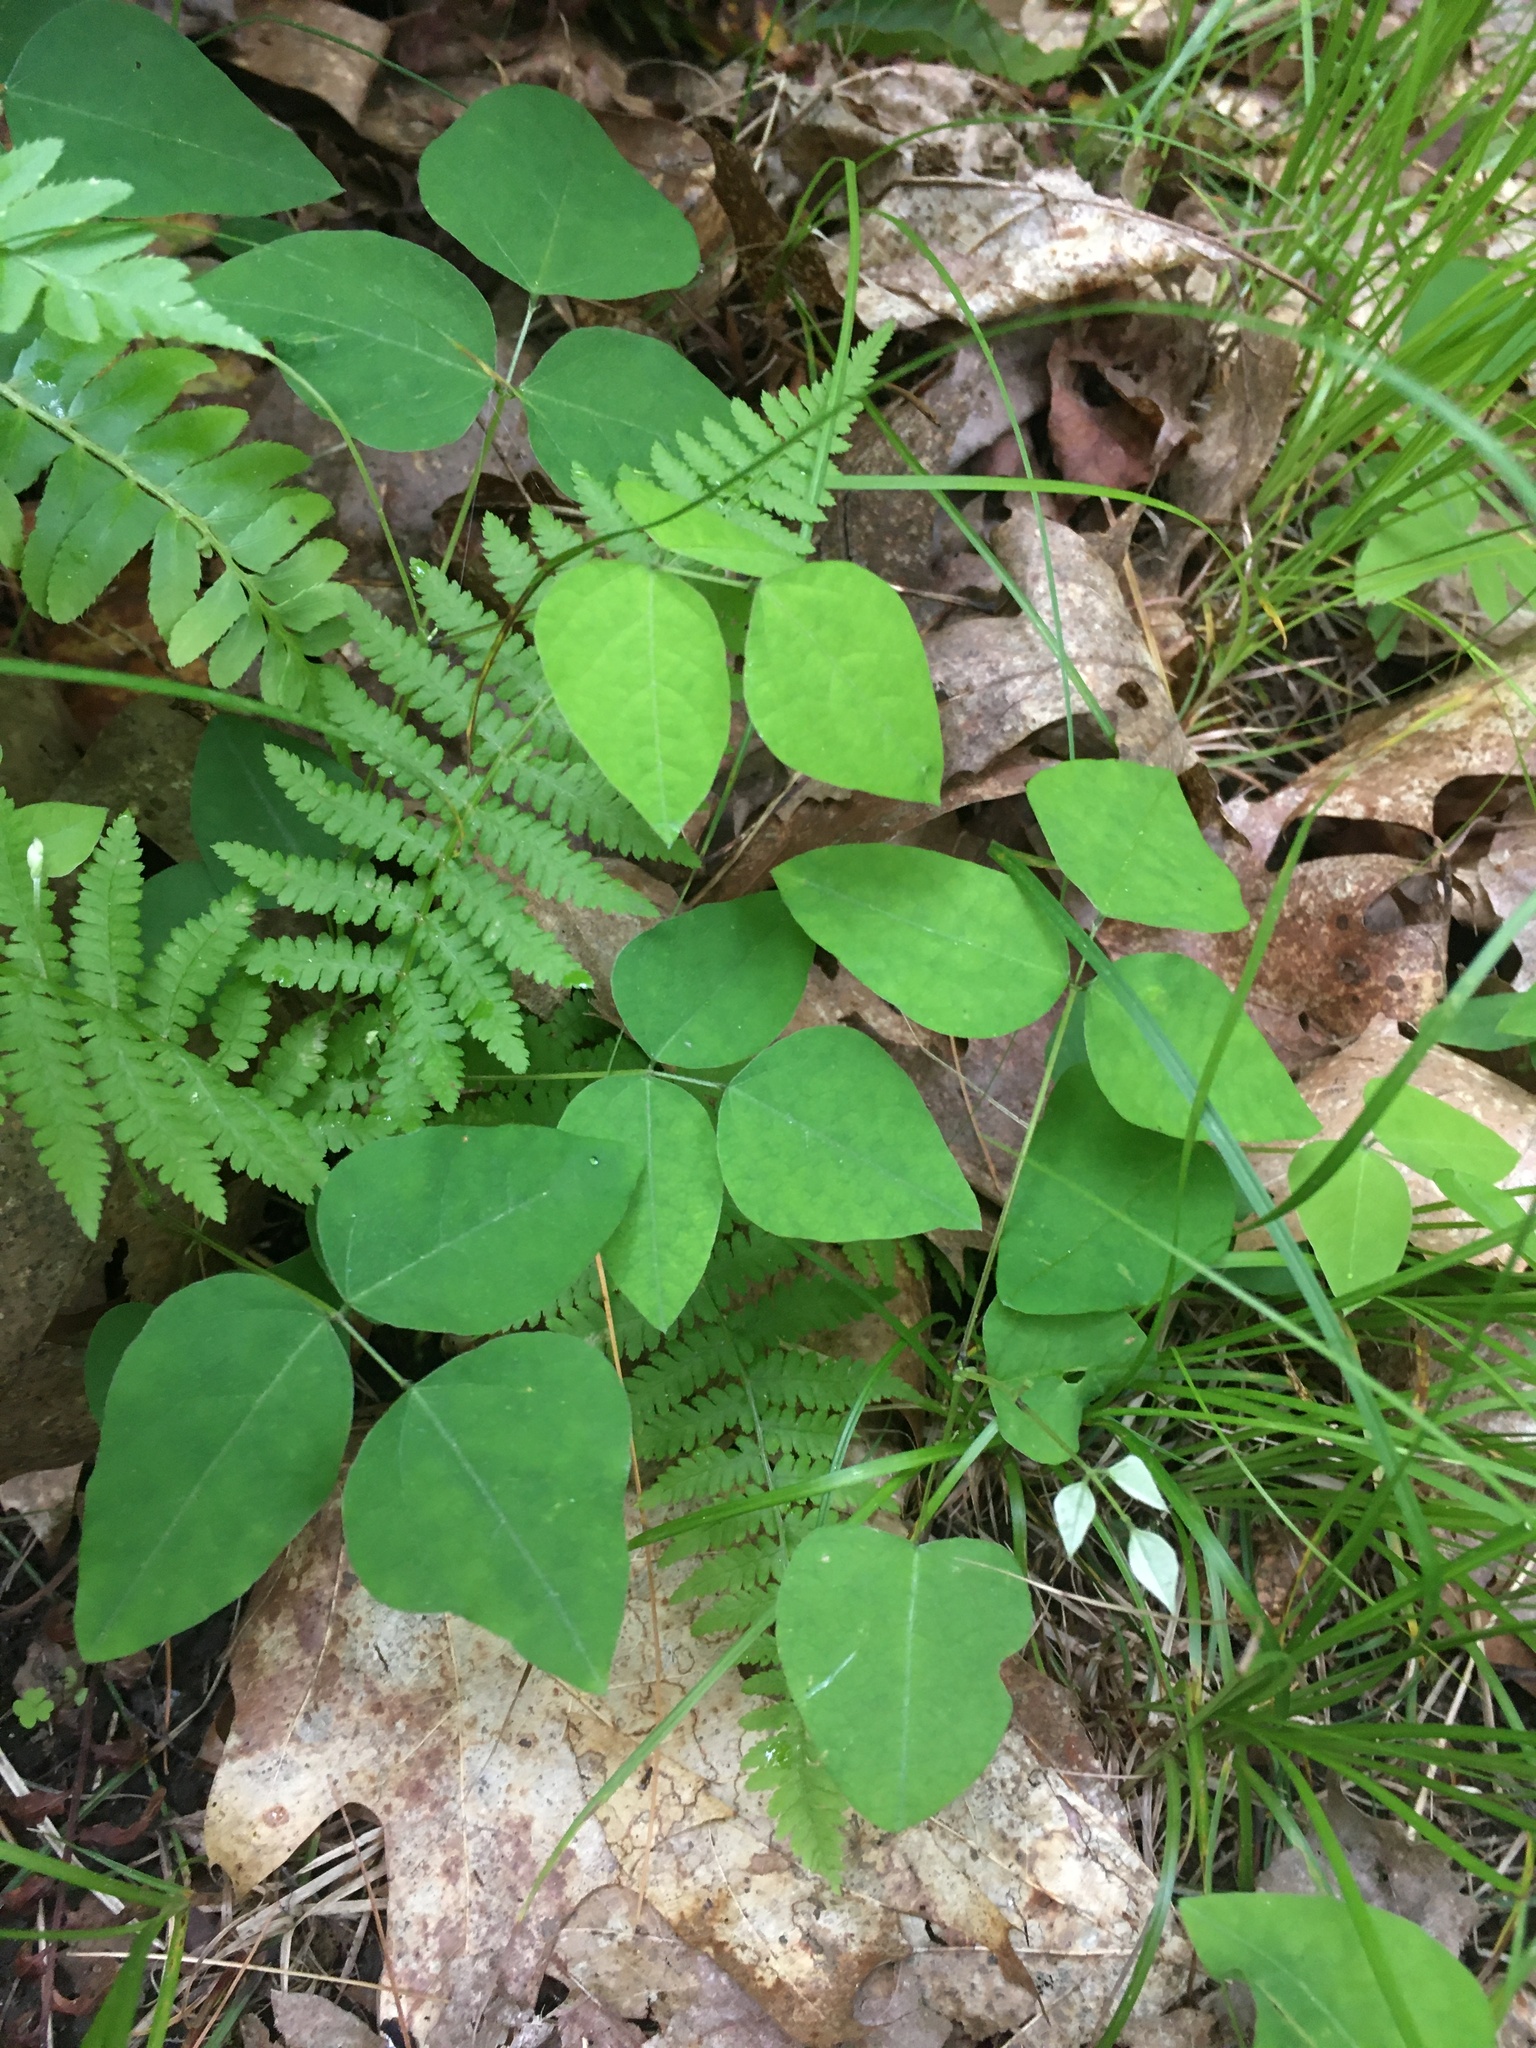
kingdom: Plantae
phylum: Tracheophyta
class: Magnoliopsida
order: Fabales
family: Fabaceae
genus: Amphicarpaea
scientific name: Amphicarpaea bracteata
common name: American hog peanut
